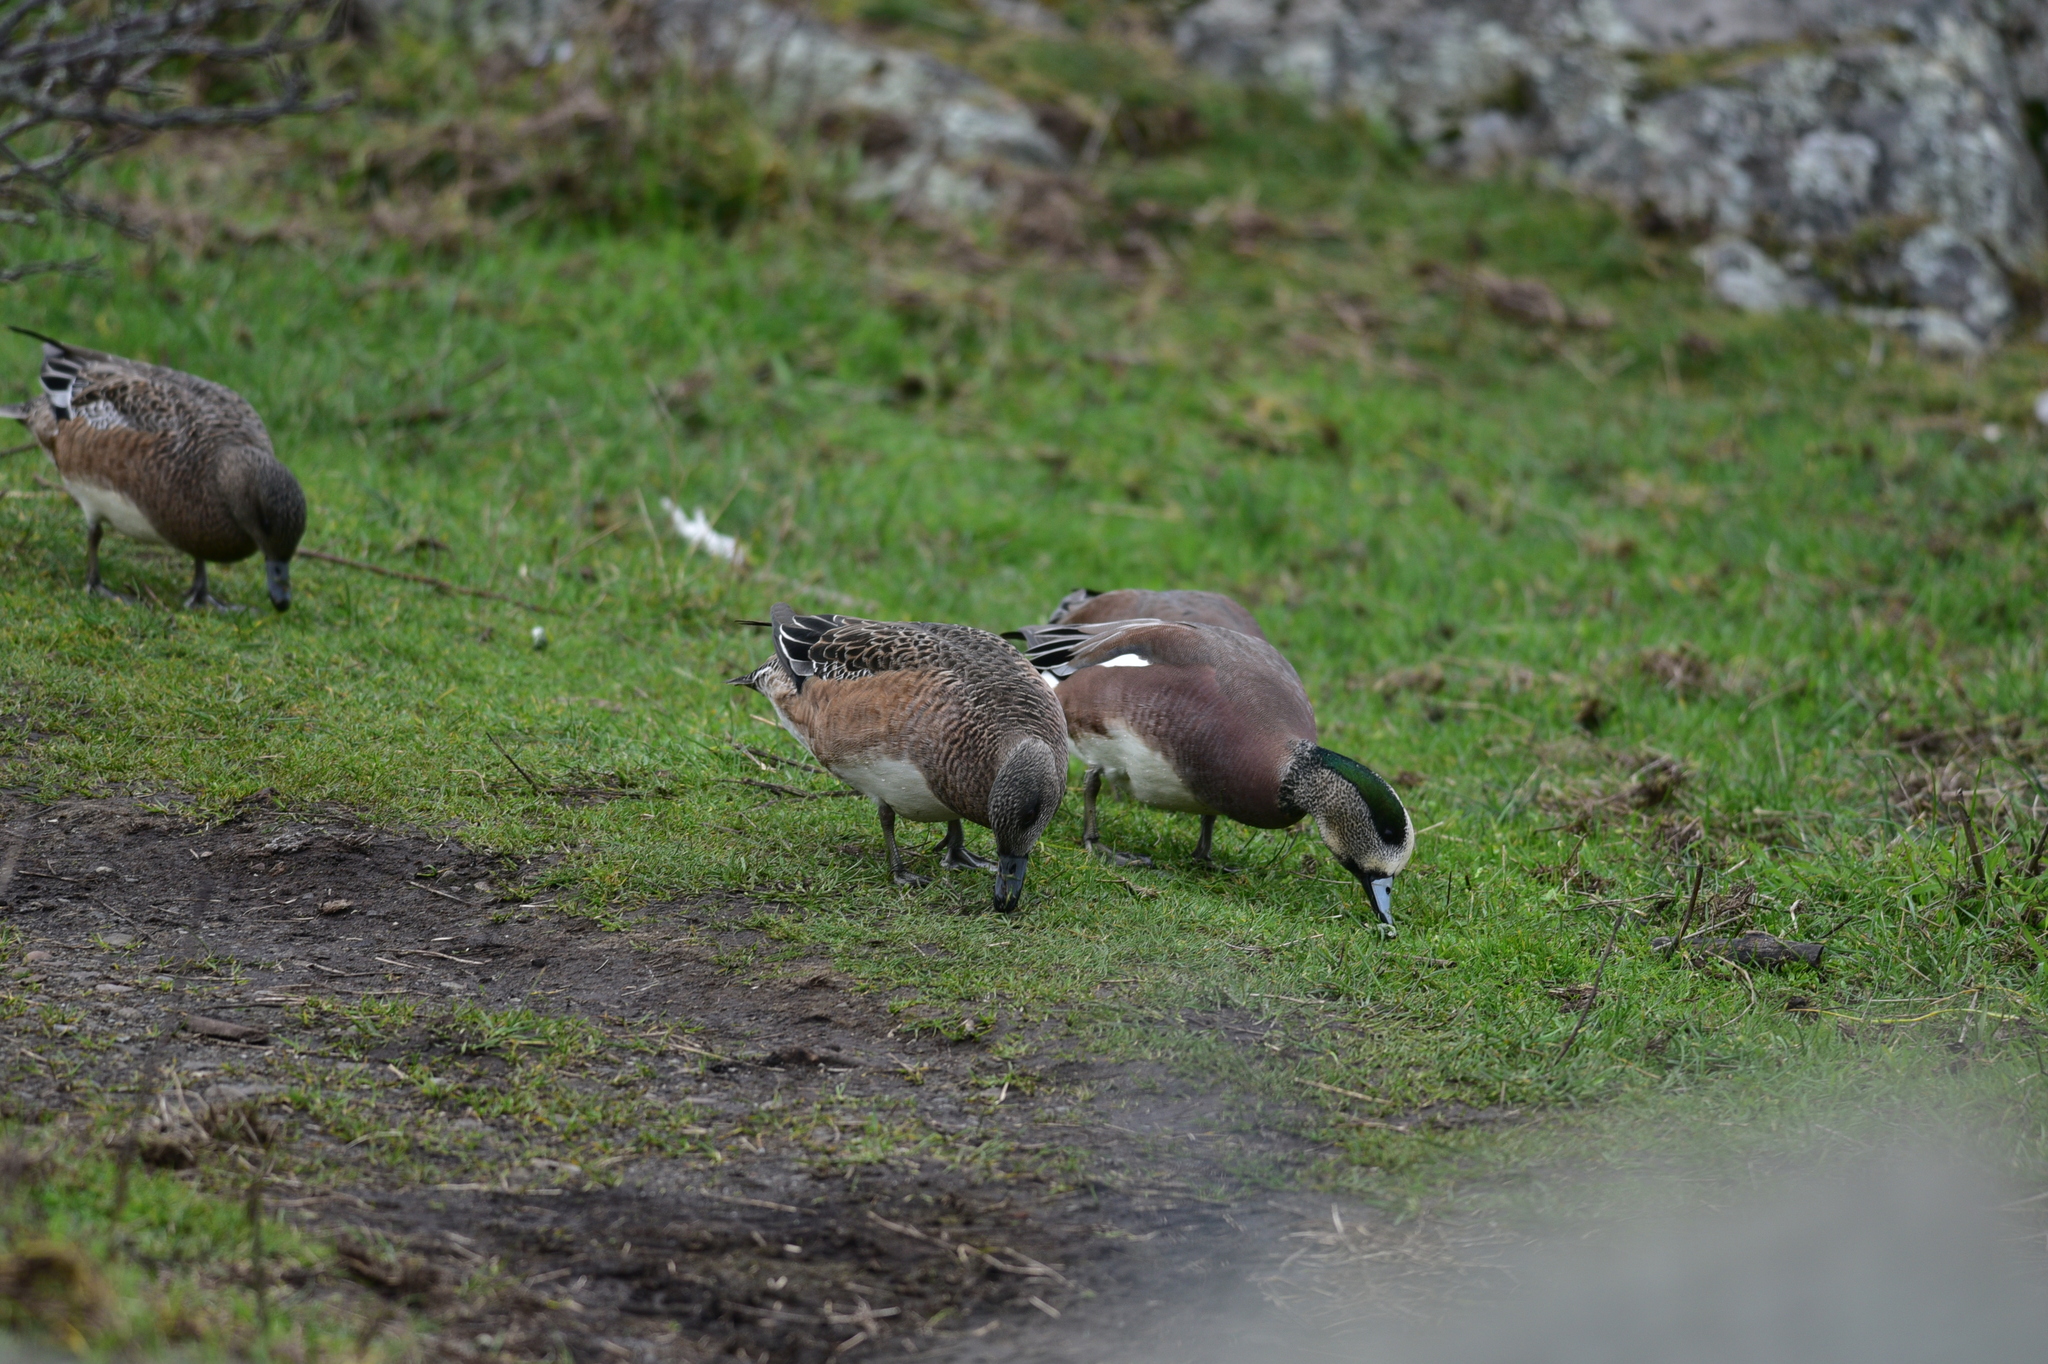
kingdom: Animalia
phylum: Chordata
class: Aves
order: Anseriformes
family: Anatidae
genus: Mareca
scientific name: Mareca americana
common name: American wigeon
